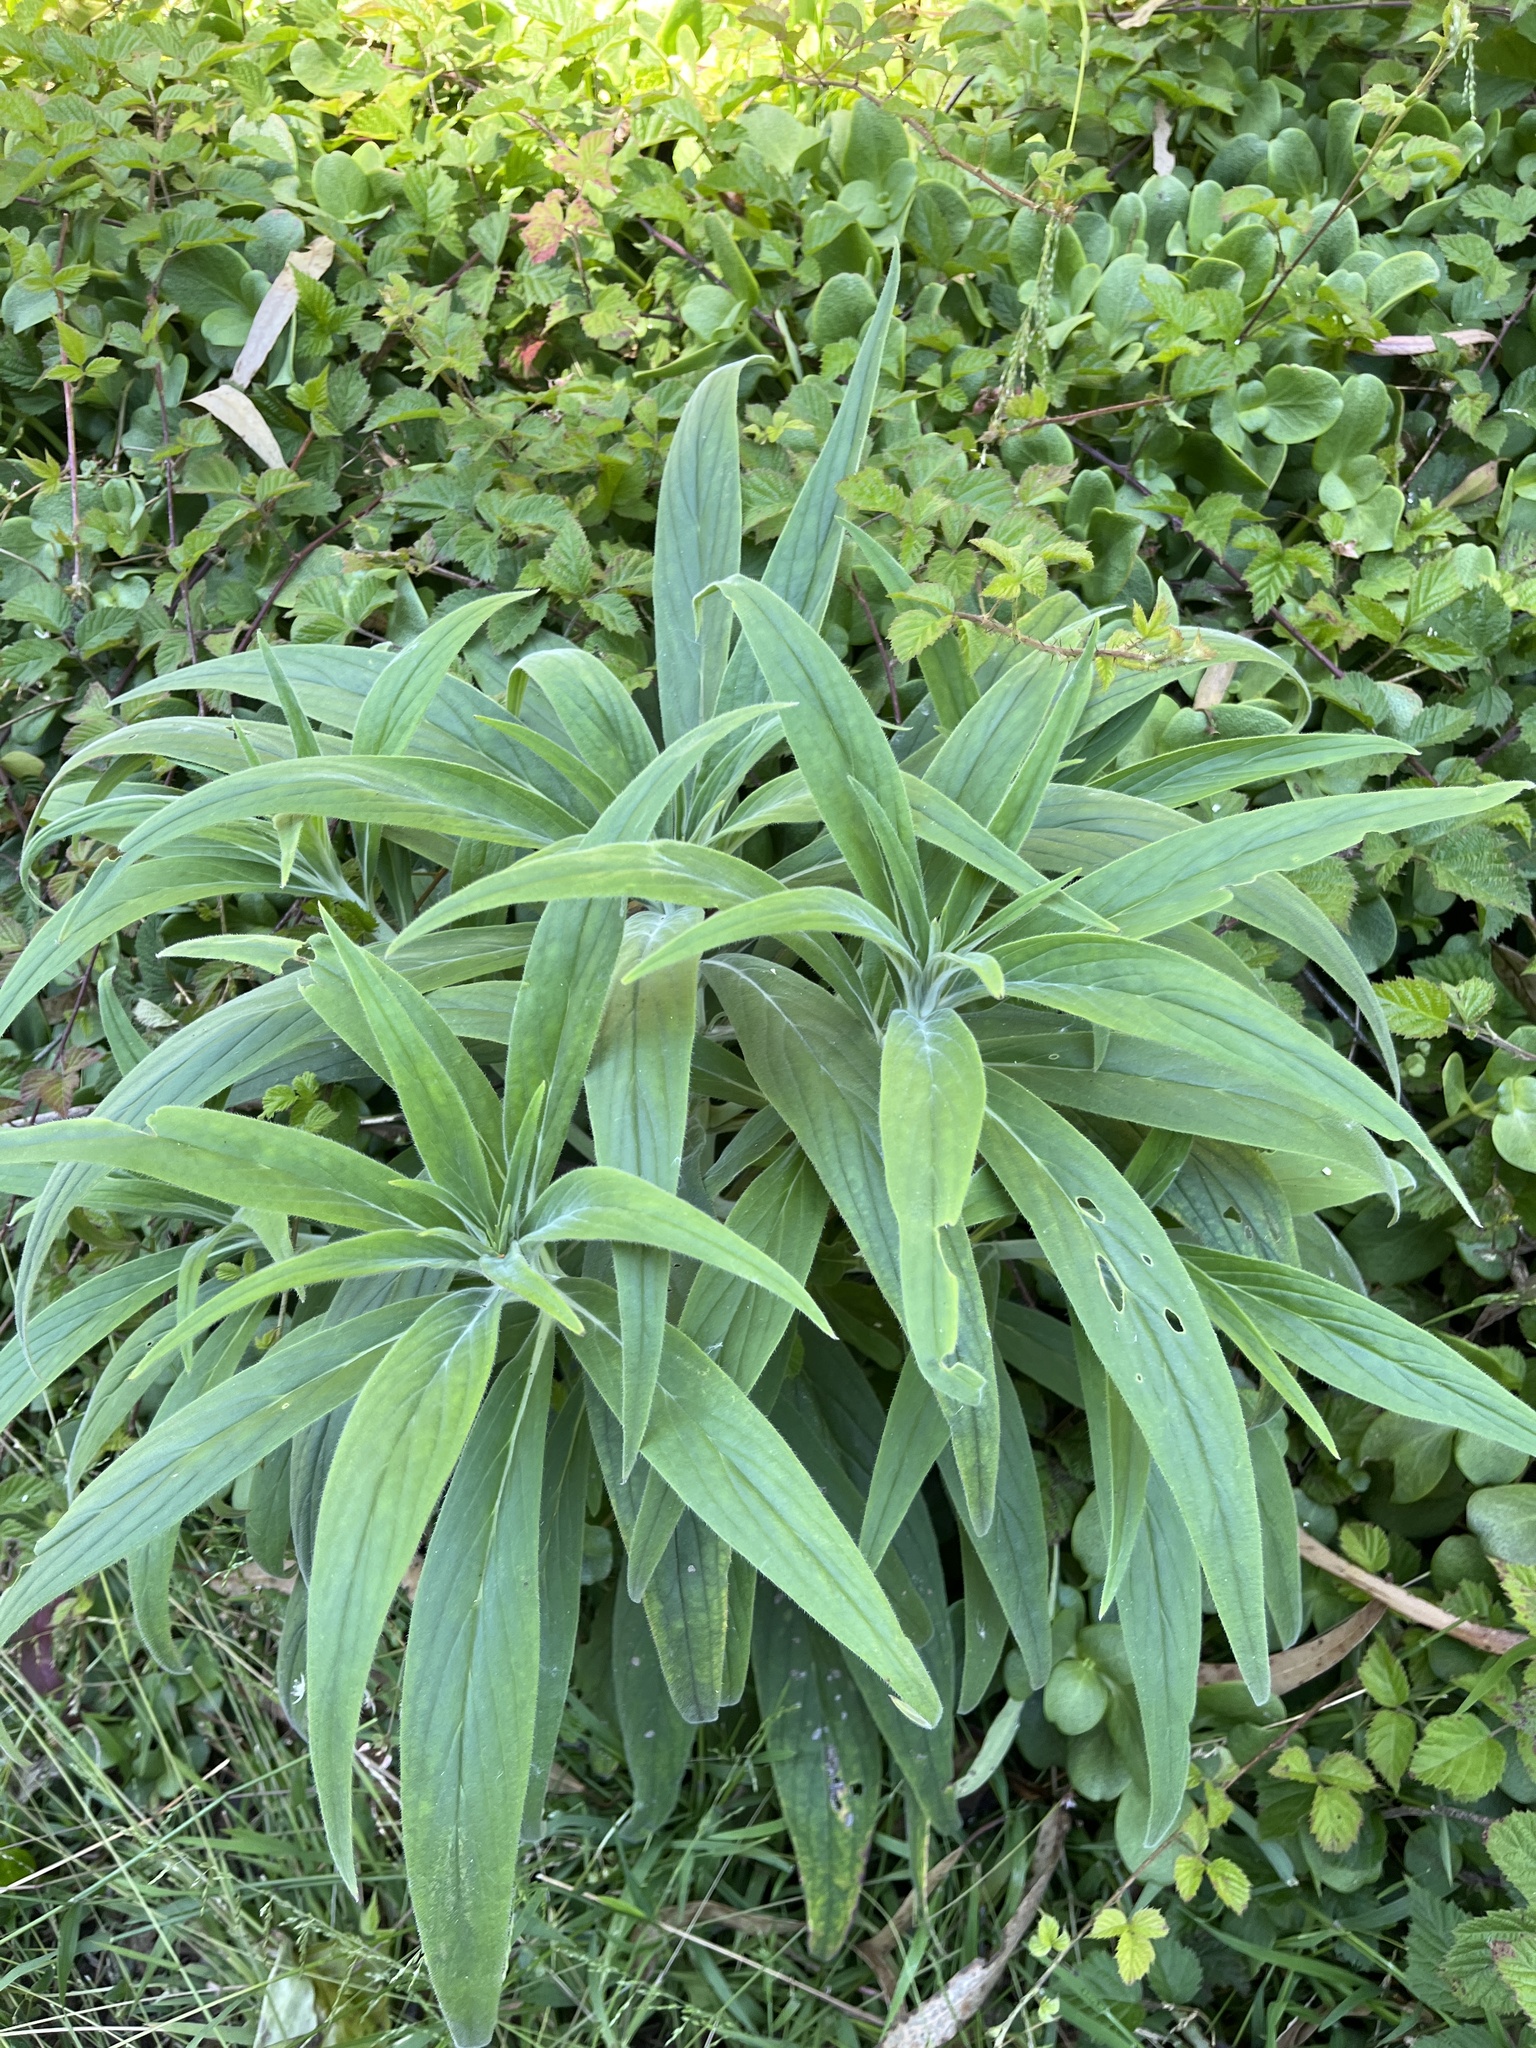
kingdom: Plantae
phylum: Tracheophyta
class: Magnoliopsida
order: Boraginales
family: Boraginaceae
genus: Echium
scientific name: Echium candicans
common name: Pride of madeira
